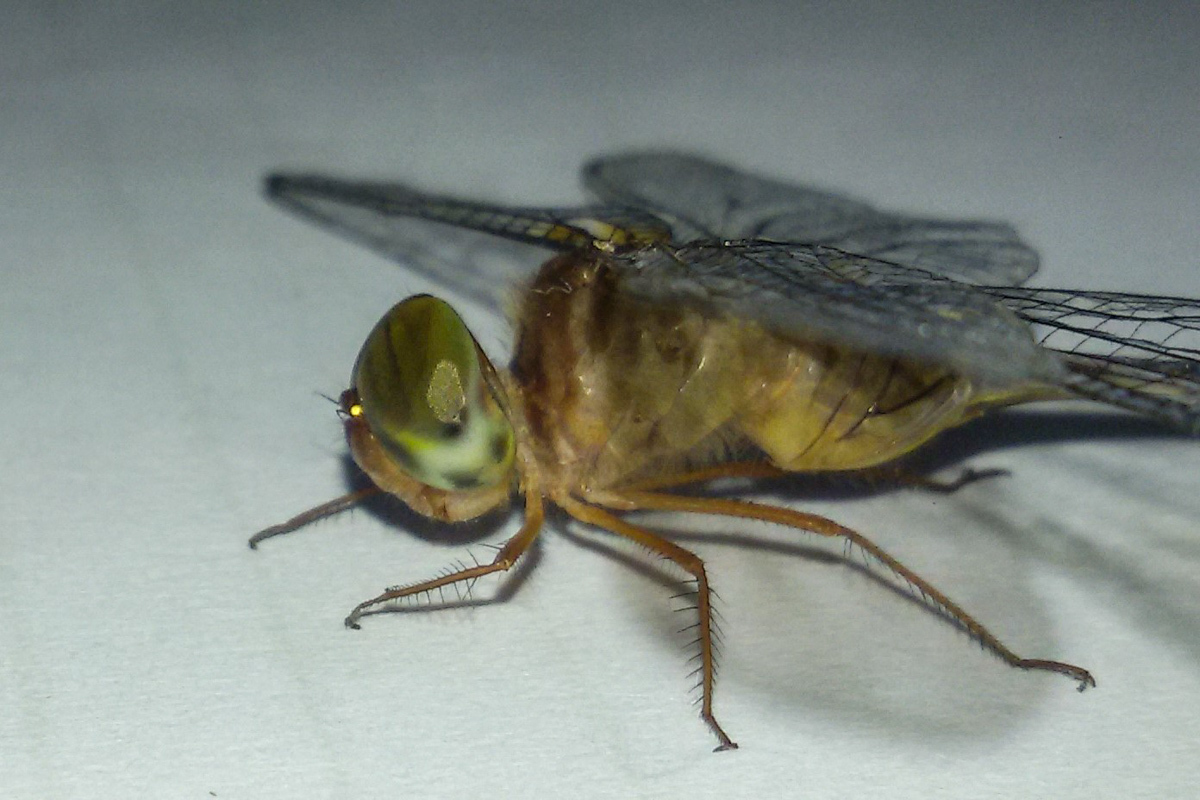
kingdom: Animalia
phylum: Arthropoda
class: Insecta
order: Odonata
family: Libellulidae
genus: Zyxomma
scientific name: Zyxomma petiolatum
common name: Dingy dusk-darter
